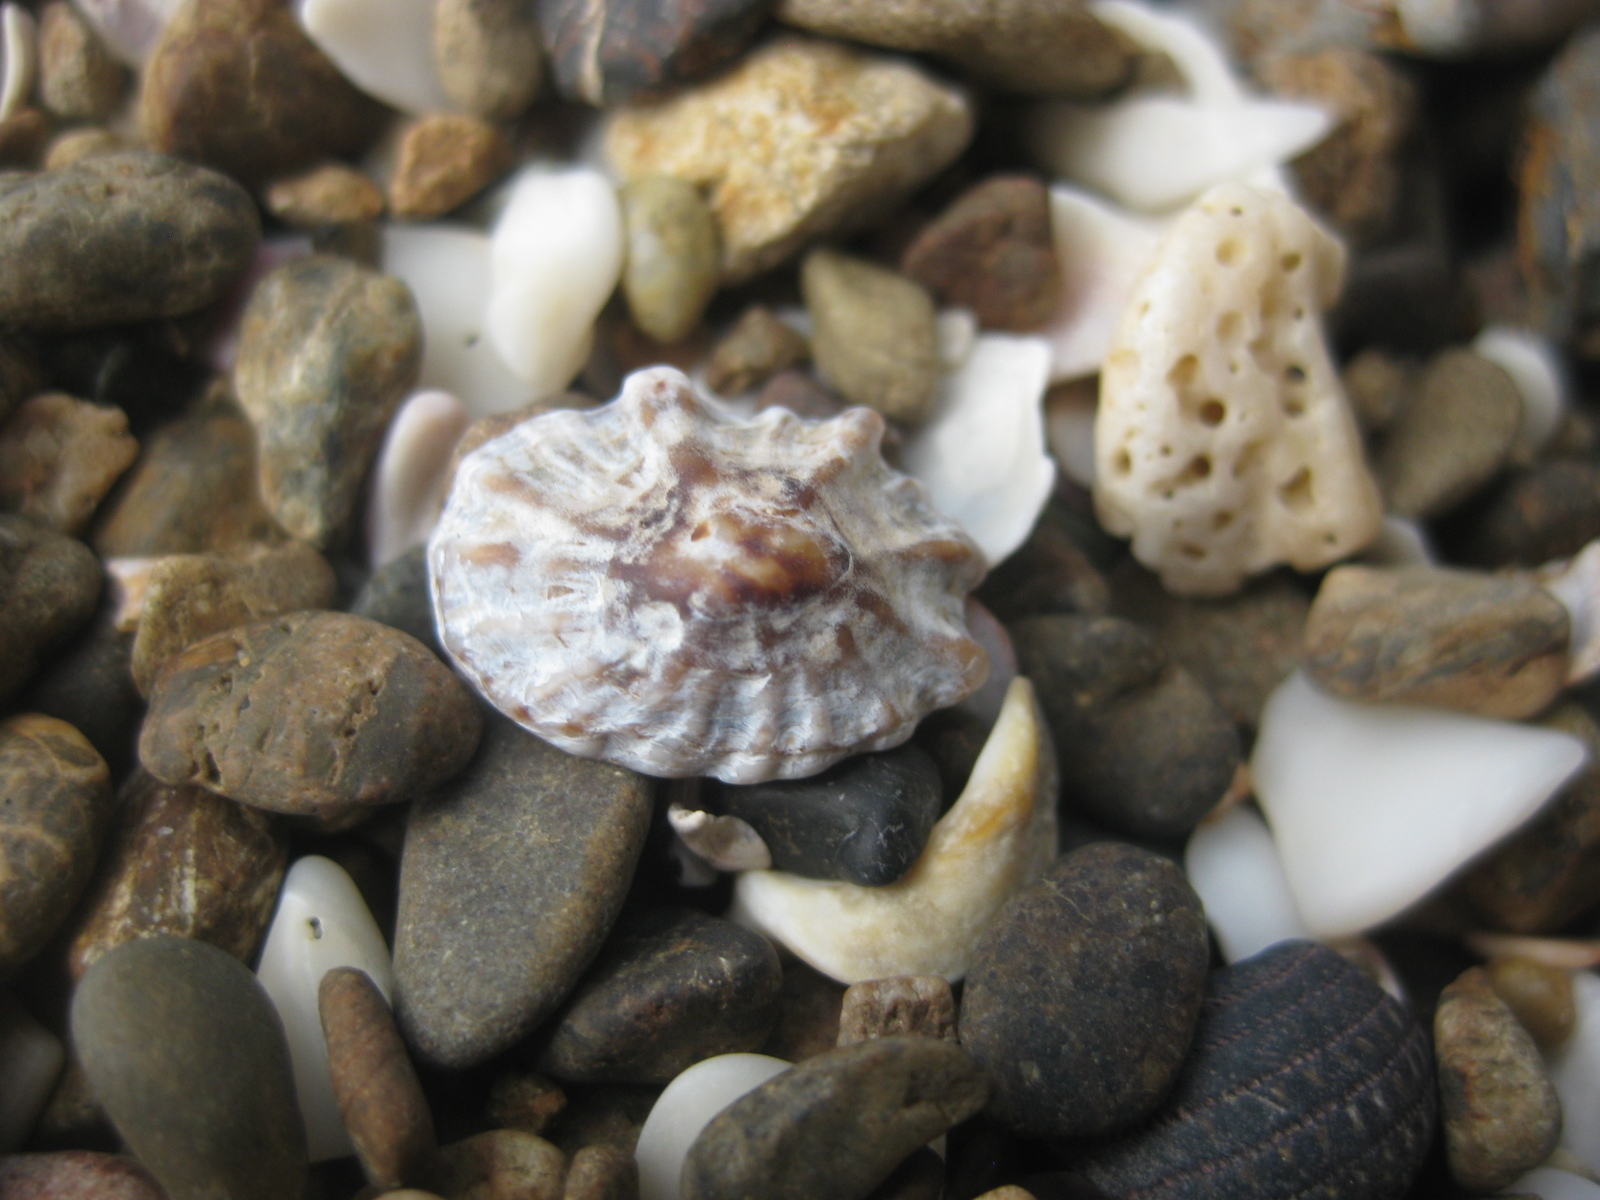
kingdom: Animalia
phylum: Mollusca
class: Gastropoda
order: Siphonariida
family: Siphonariidae
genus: Siphonaria
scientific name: Siphonaria australis
